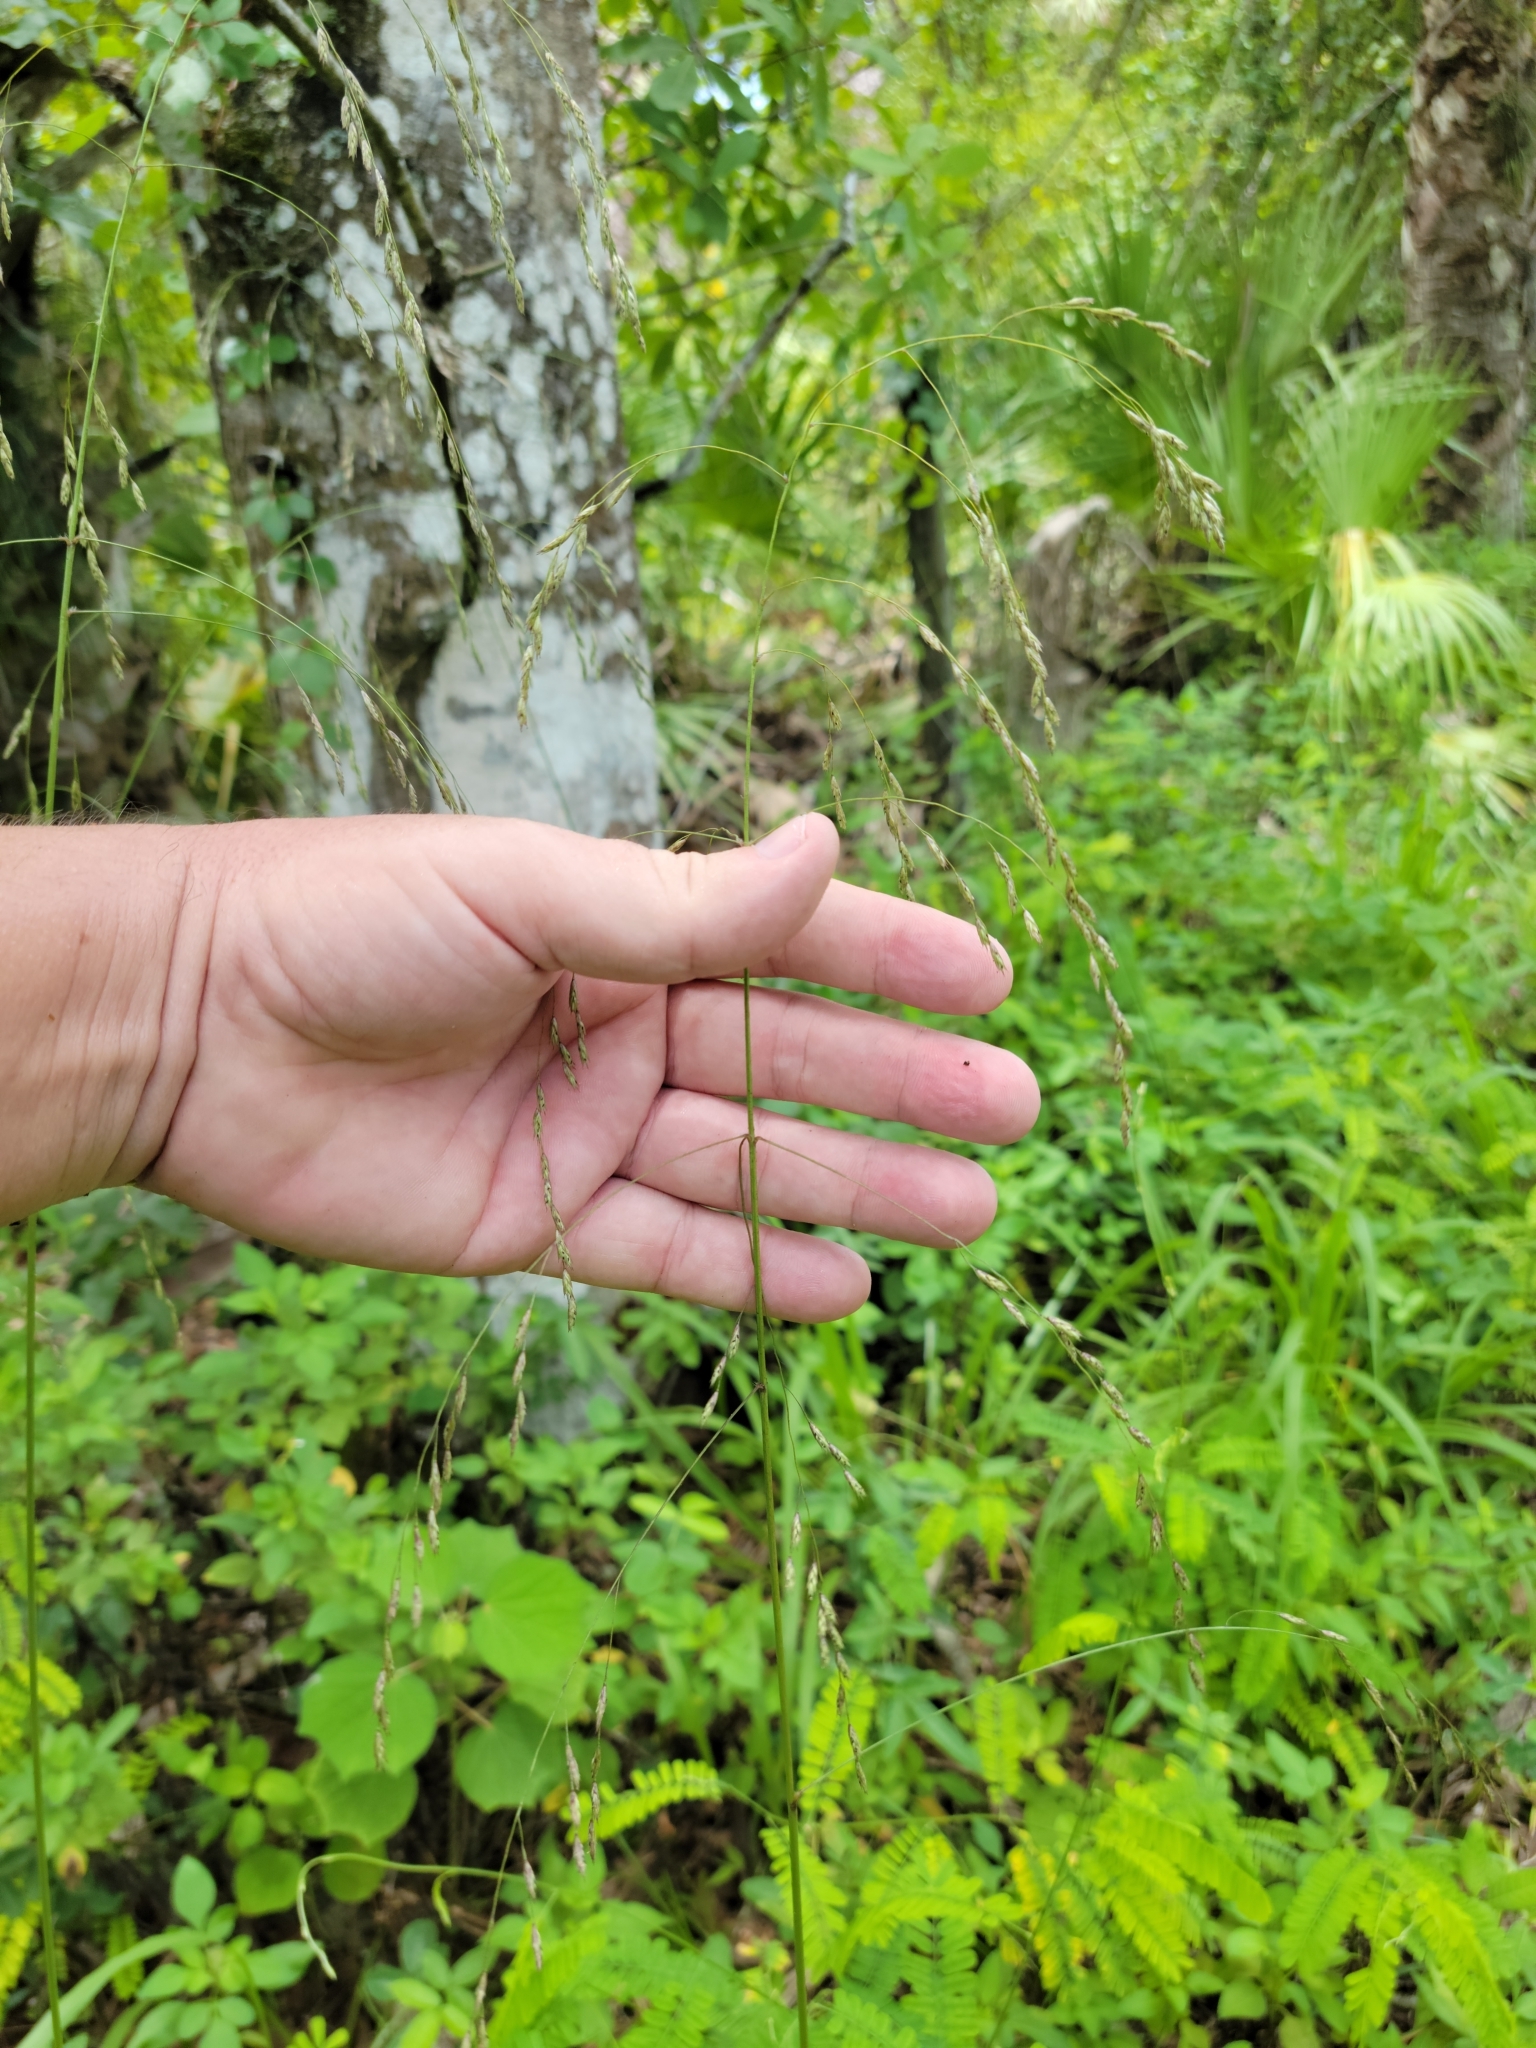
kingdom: Plantae
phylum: Tracheophyta
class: Liliopsida
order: Poales
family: Poaceae
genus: Tridens
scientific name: Tridens flavus
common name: Purpletop
